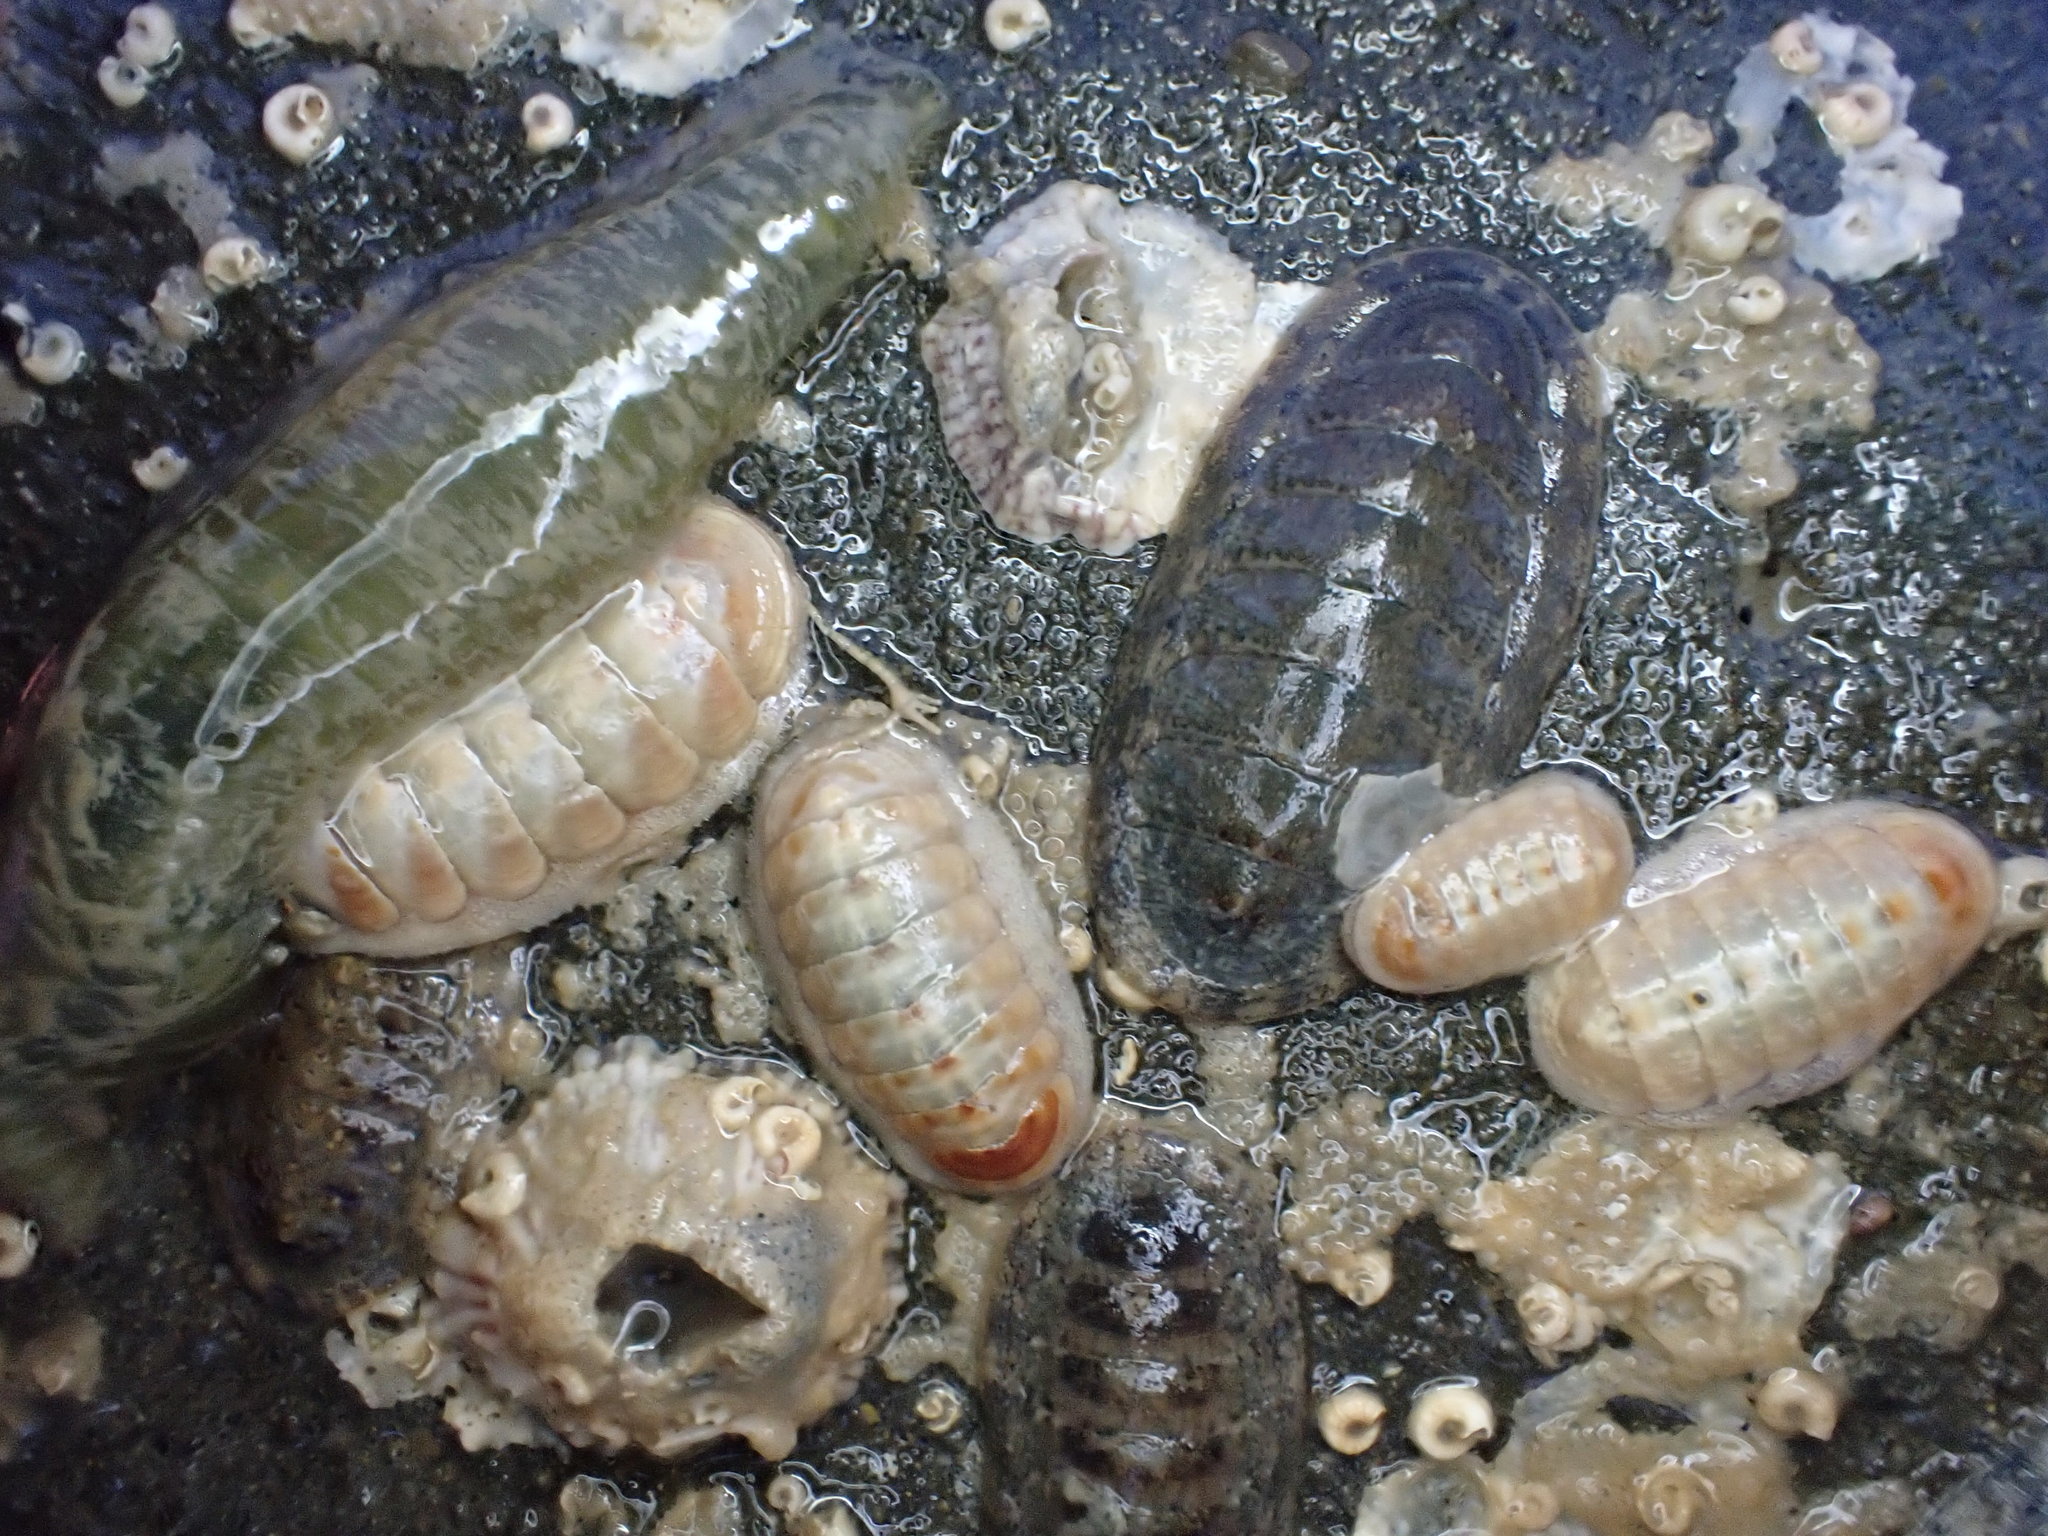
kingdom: Animalia
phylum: Mollusca
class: Polyplacophora
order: Chitonida
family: Ischnochitonidae
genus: Ischnochiton
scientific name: Ischnochiton maorianus
